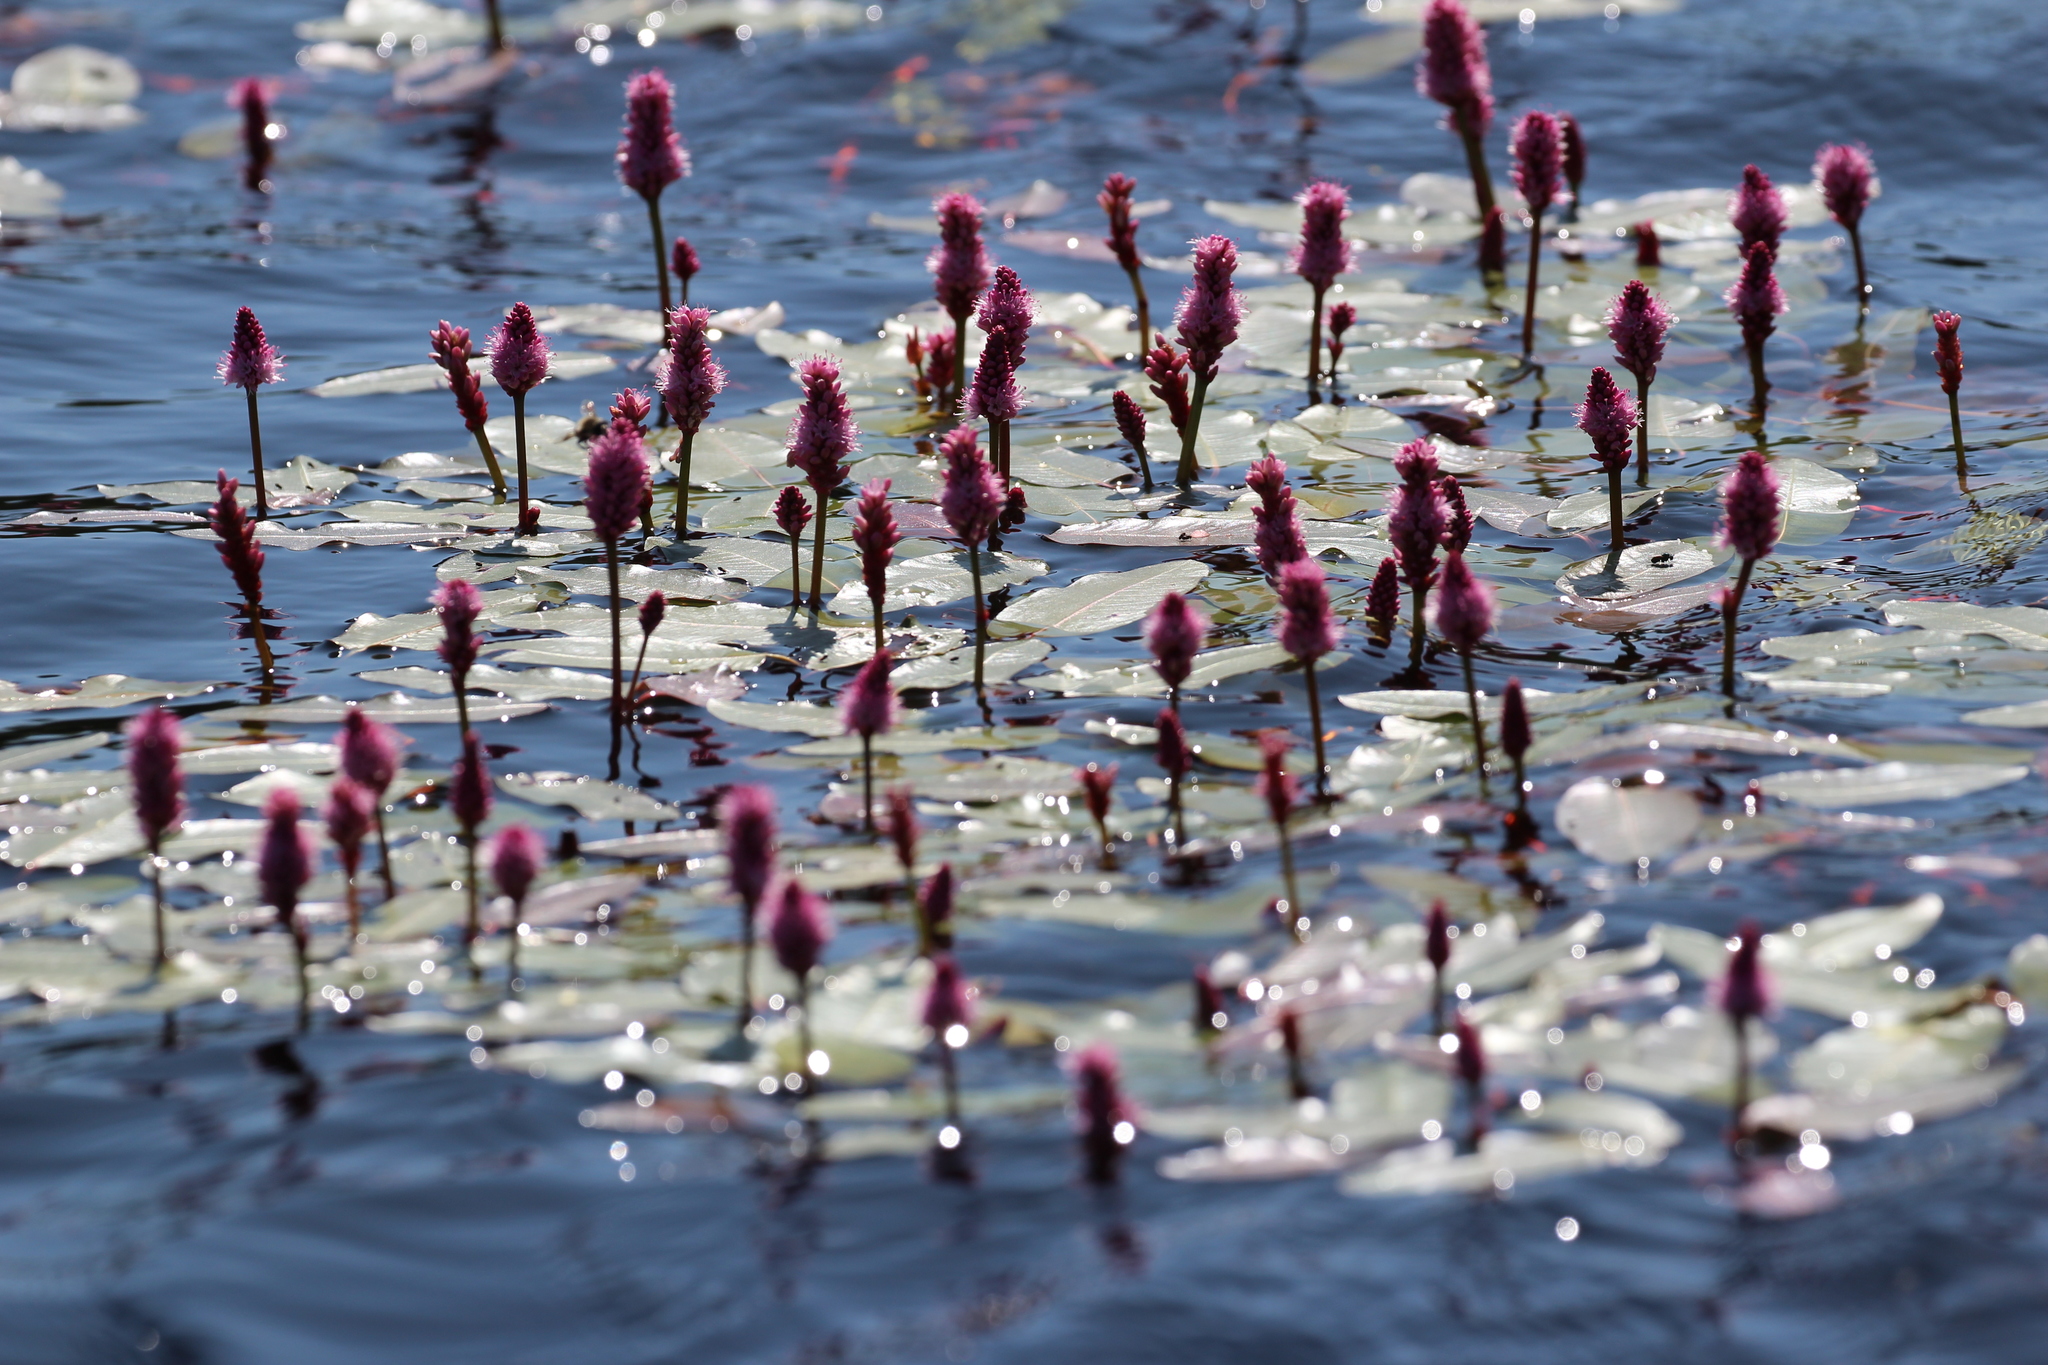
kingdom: Plantae
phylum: Tracheophyta
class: Magnoliopsida
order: Caryophyllales
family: Polygonaceae
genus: Persicaria
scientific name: Persicaria amphibia
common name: Amphibious bistort
